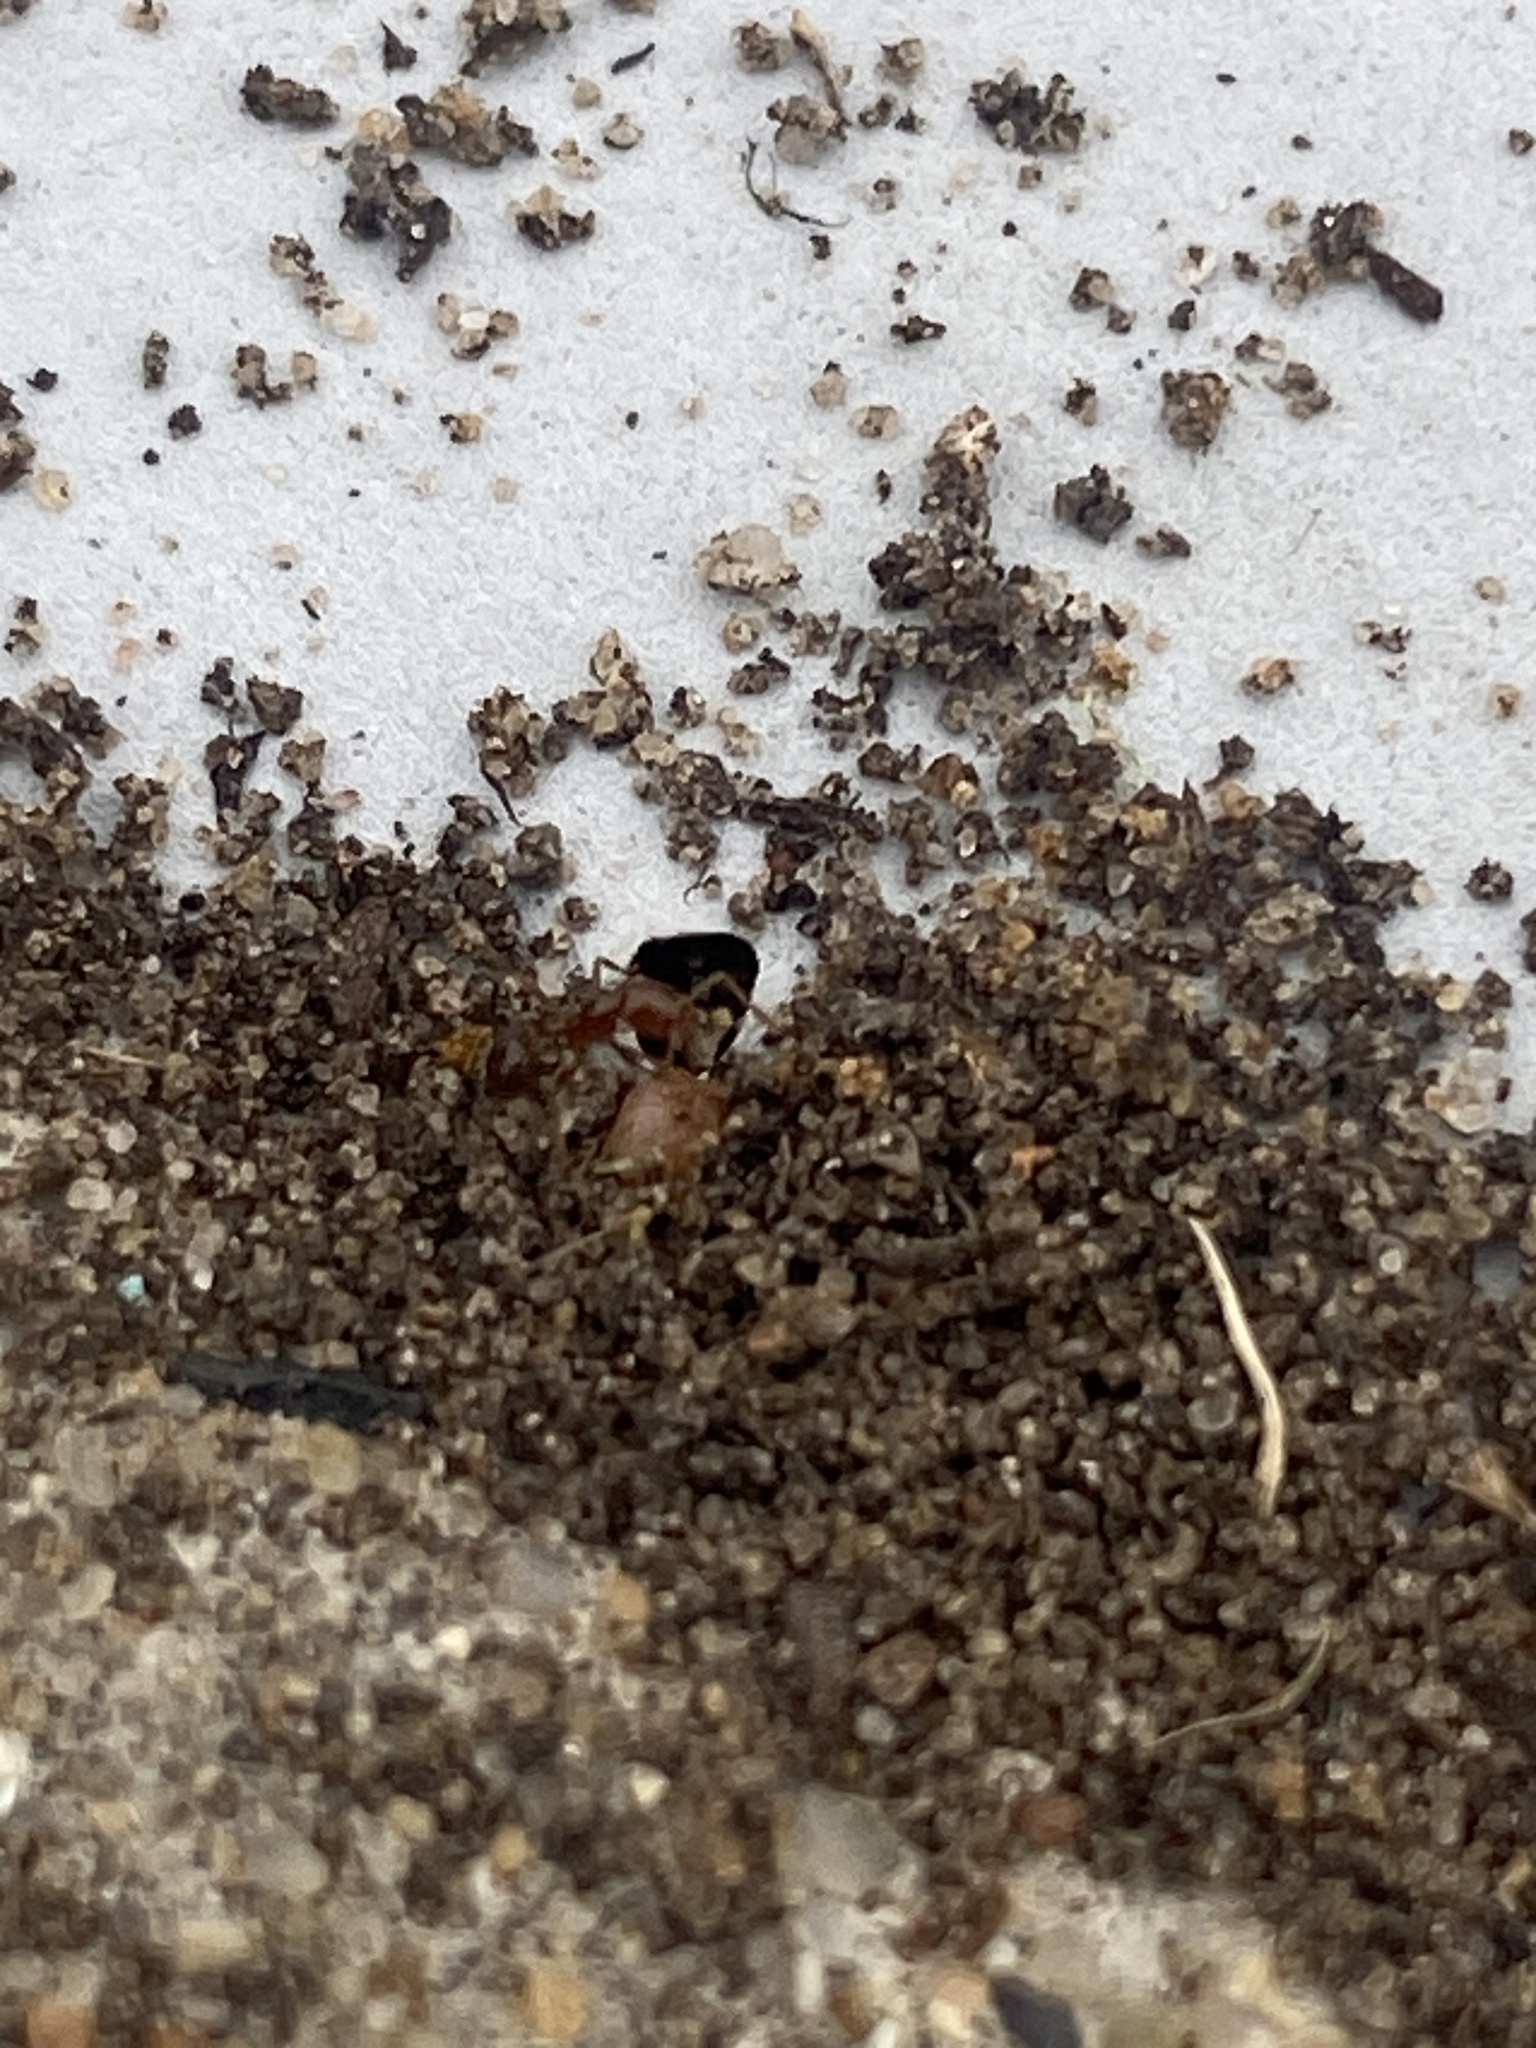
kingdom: Animalia
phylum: Arthropoda
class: Insecta
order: Hymenoptera
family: Formicidae
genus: Solenopsis
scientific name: Solenopsis invicta
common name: Red imported fire ant
